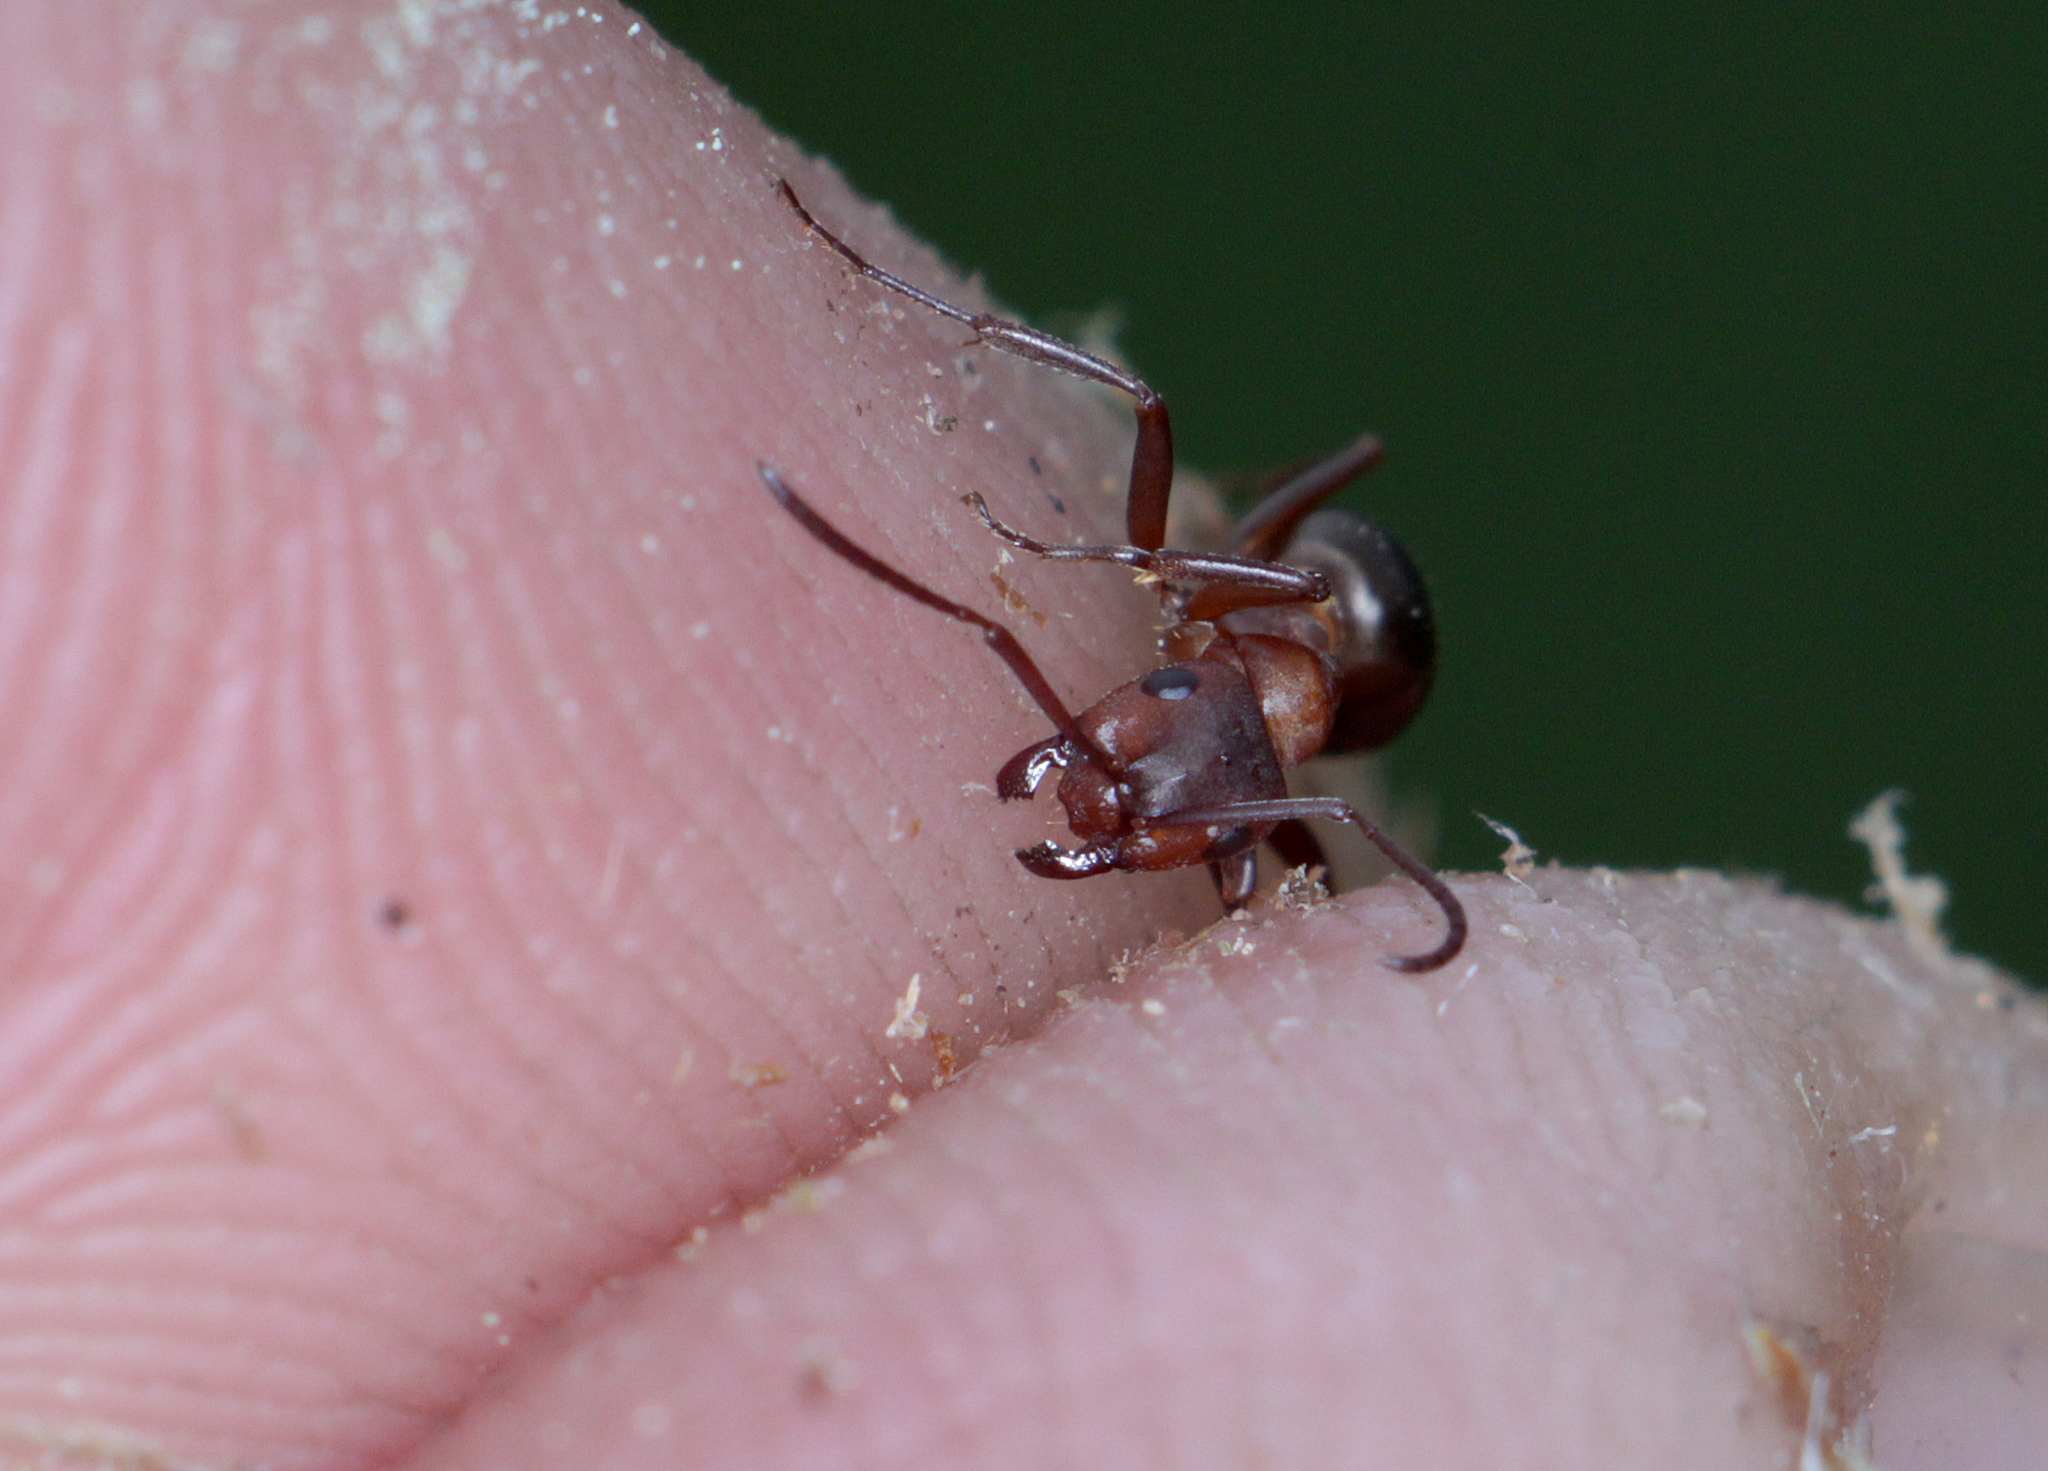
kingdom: Animalia
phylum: Arthropoda
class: Insecta
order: Hymenoptera
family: Formicidae
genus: Formica
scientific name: Formica sanguinea
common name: Blood-red ant
